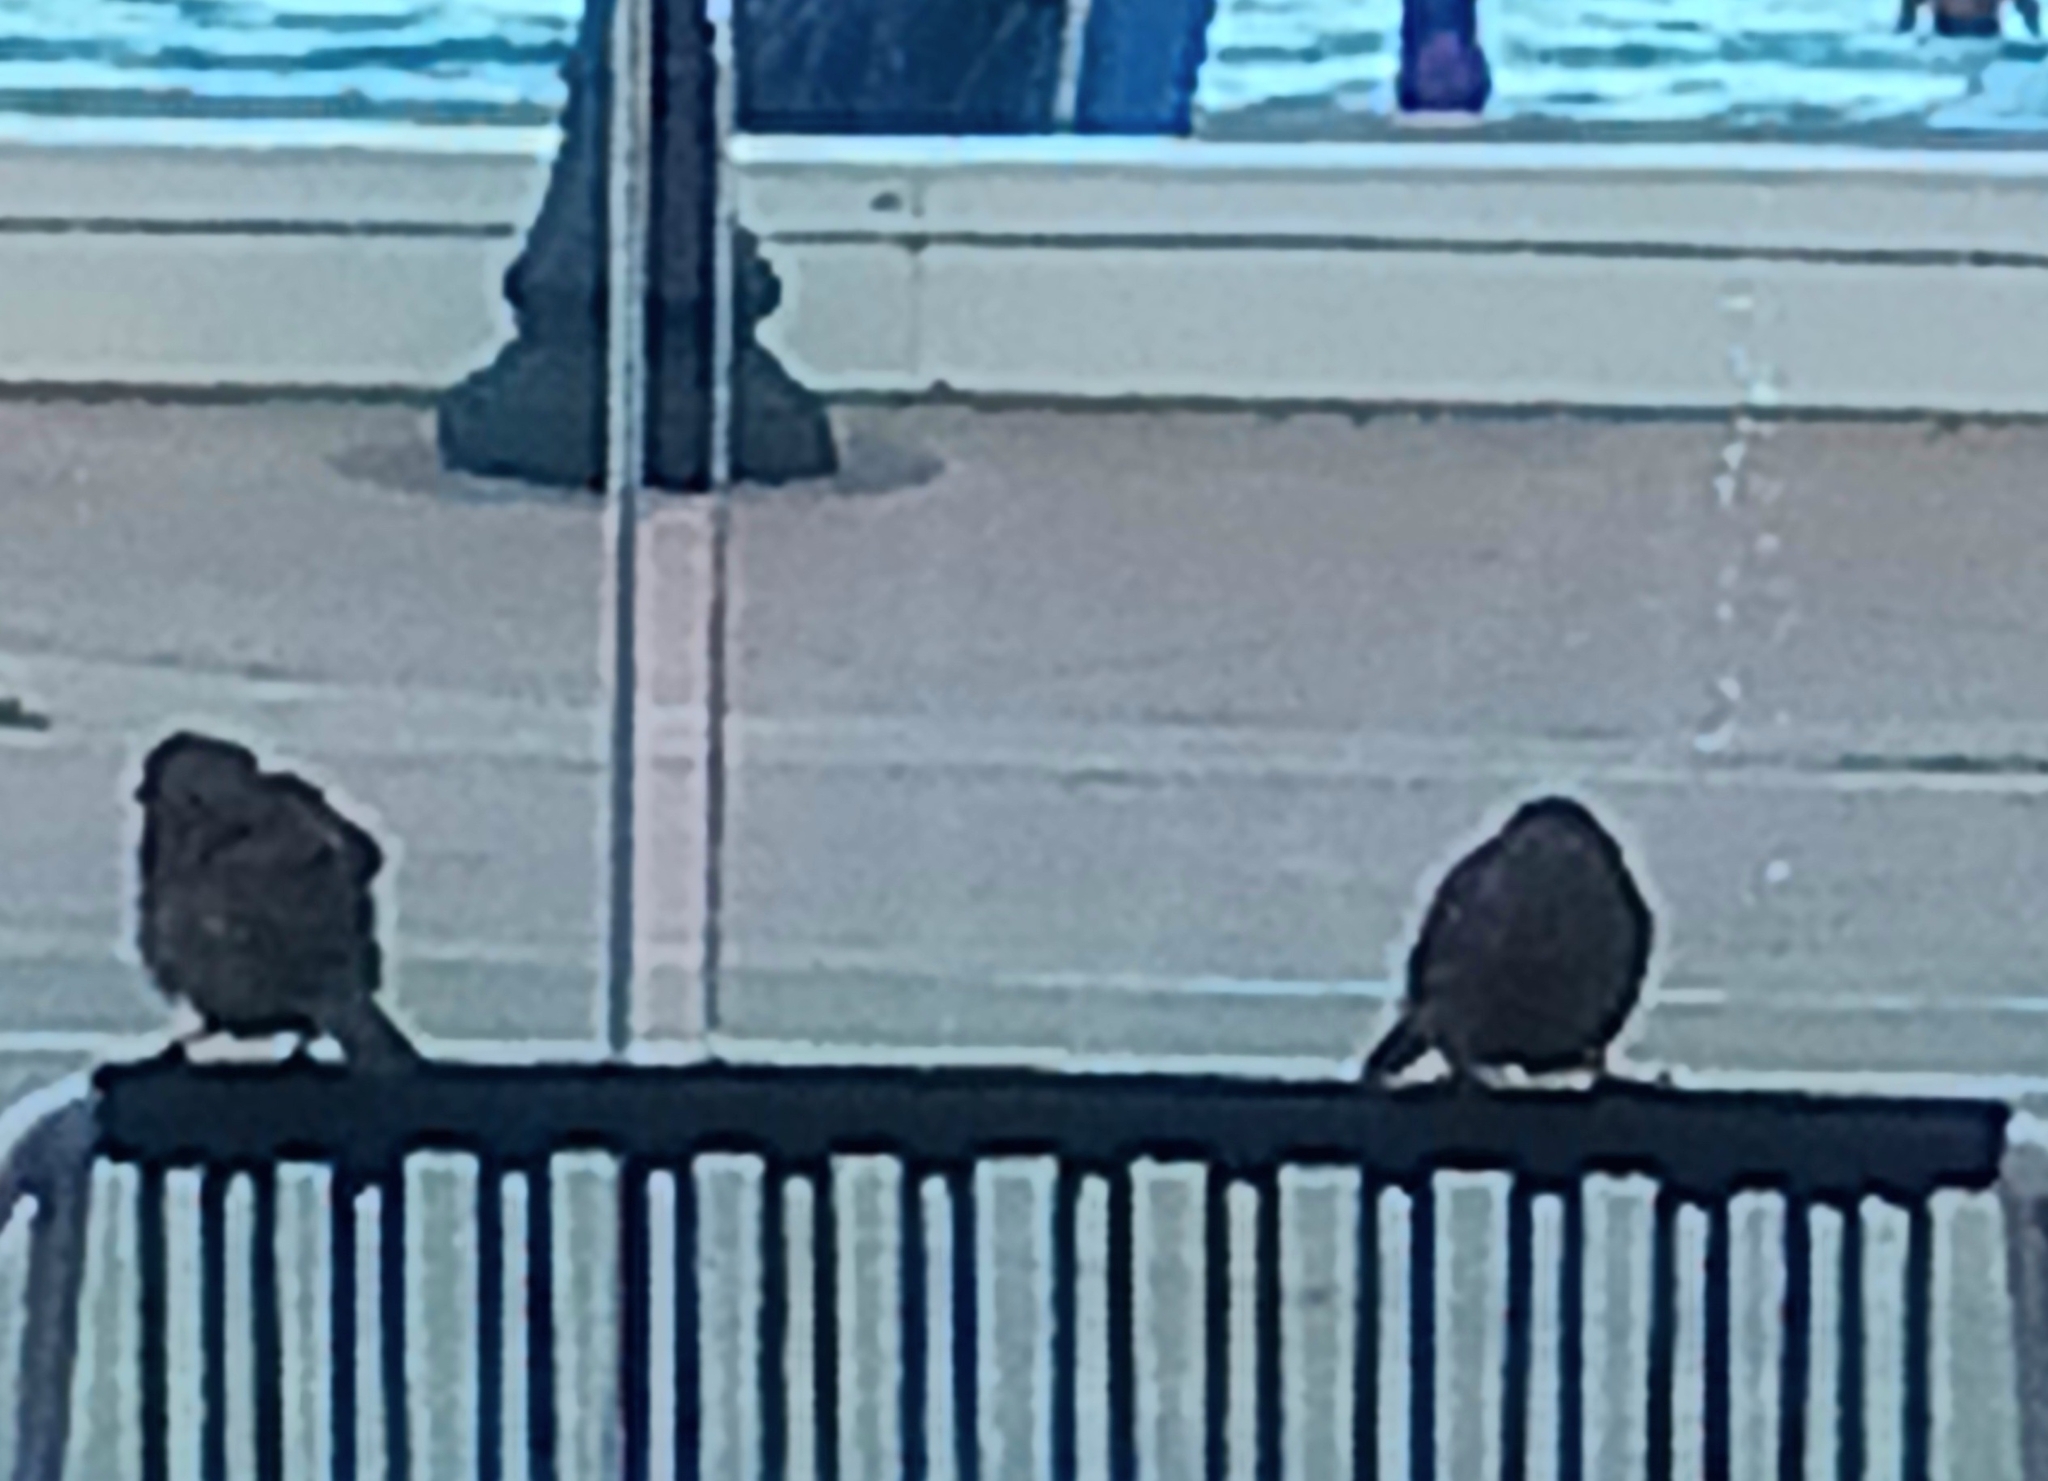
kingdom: Animalia
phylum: Chordata
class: Aves
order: Passeriformes
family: Passeridae
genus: Passer
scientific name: Passer domesticus
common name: House sparrow
